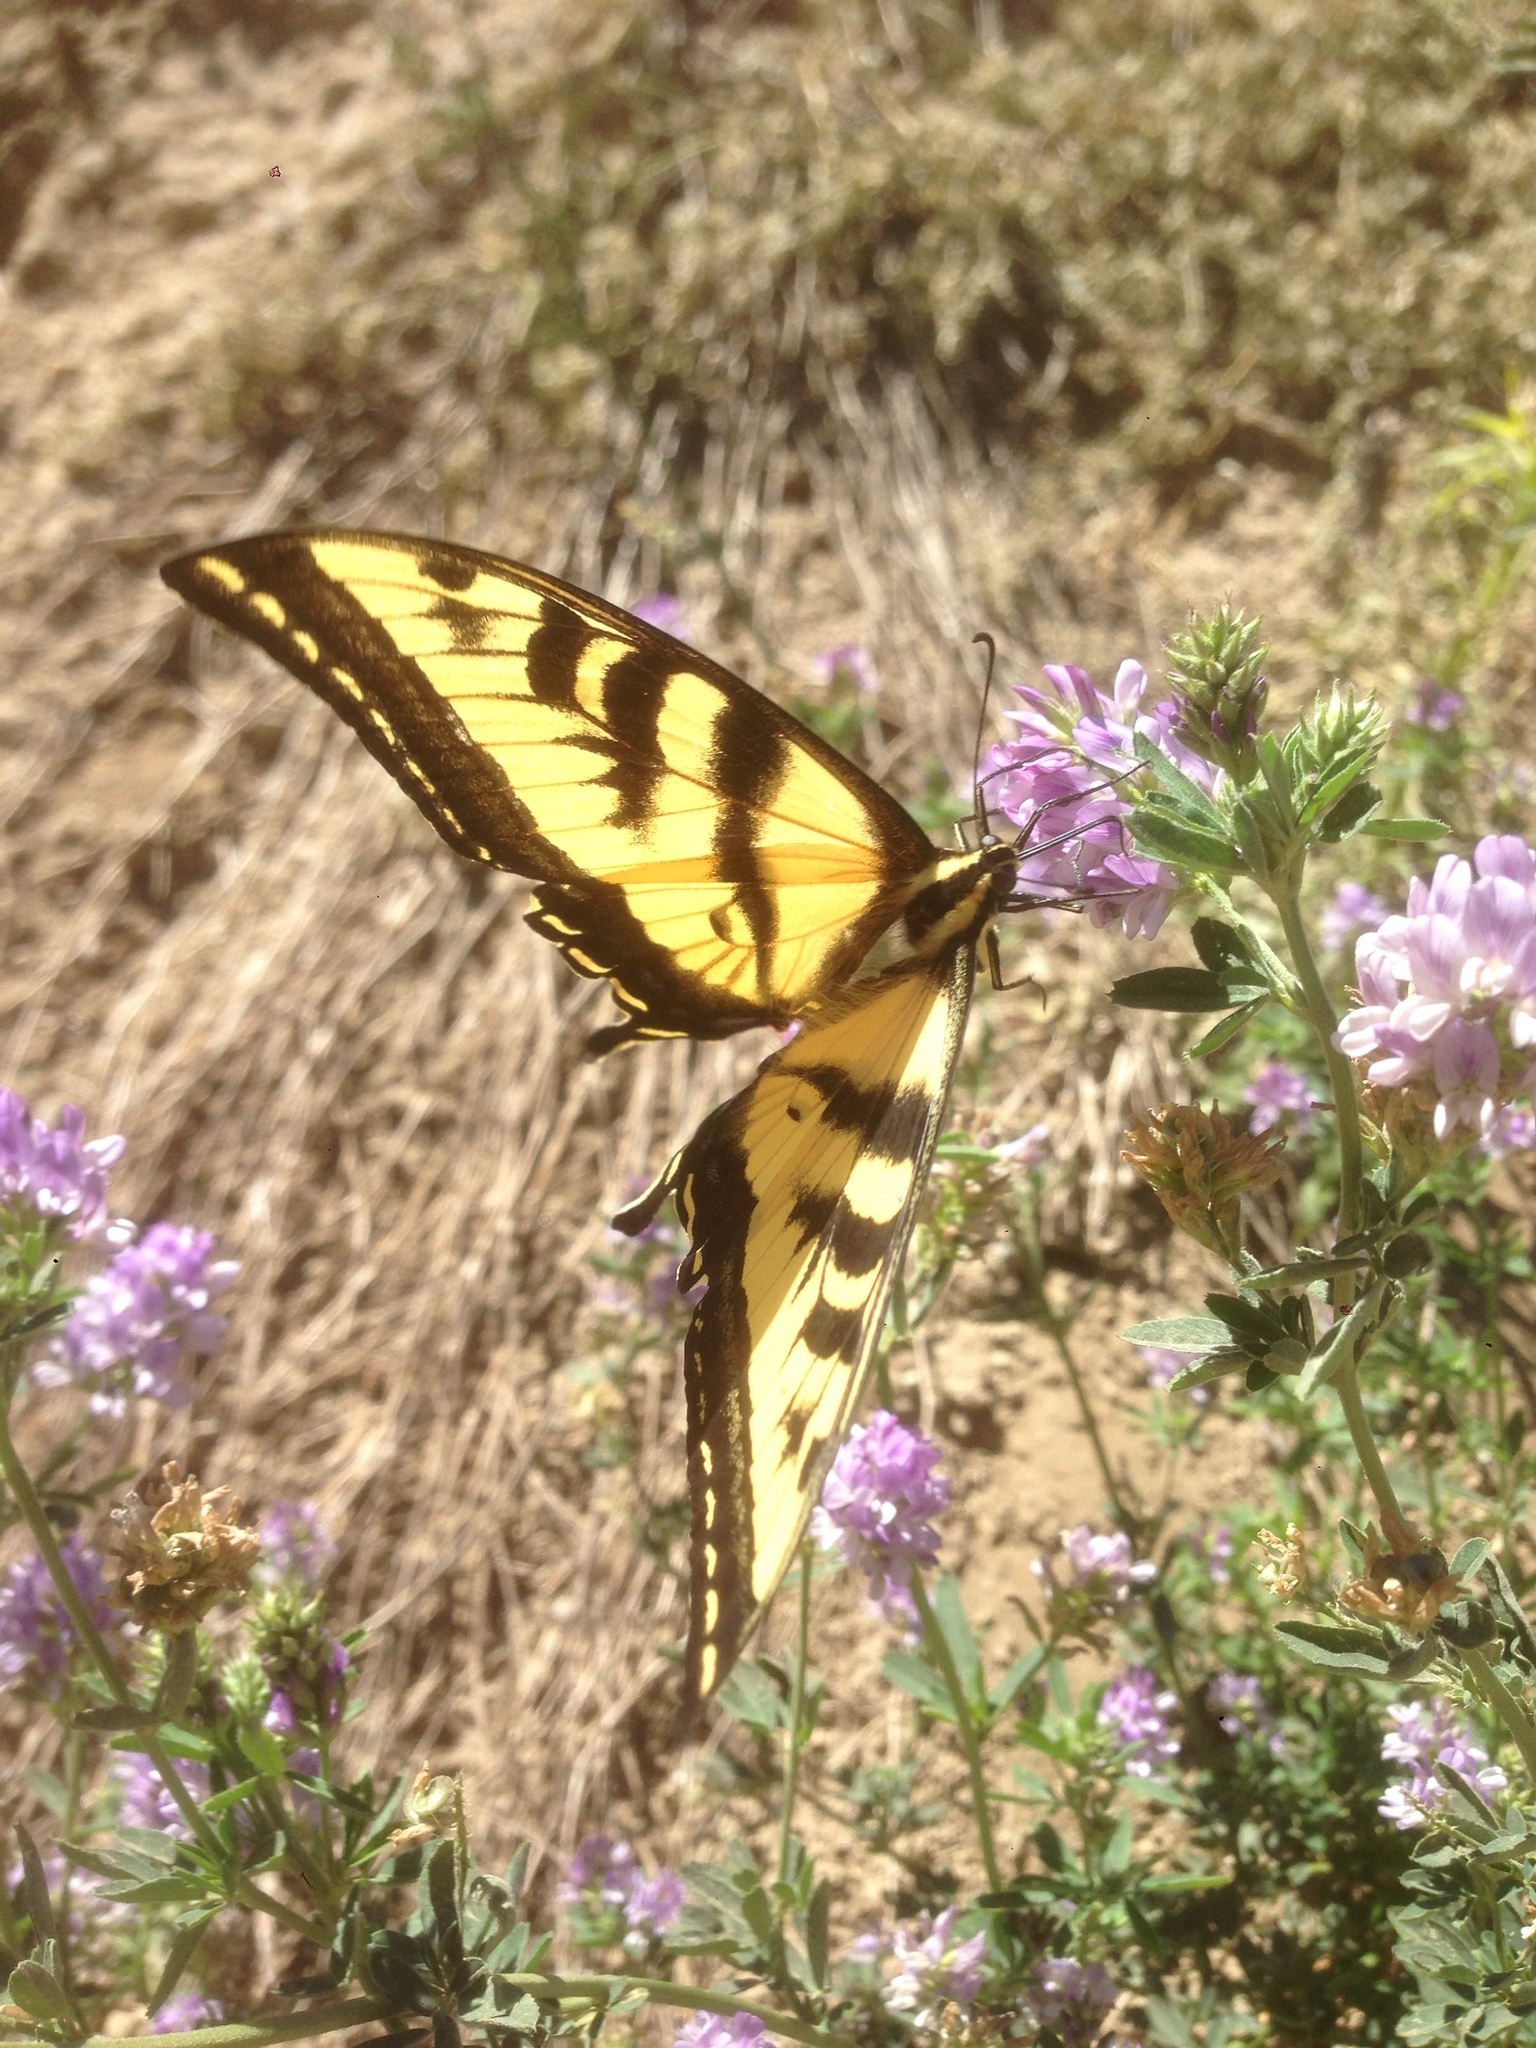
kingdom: Animalia
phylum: Arthropoda
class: Insecta
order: Lepidoptera
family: Papilionidae
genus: Papilio
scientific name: Papilio rutulus
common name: Western tiger swallowtail
